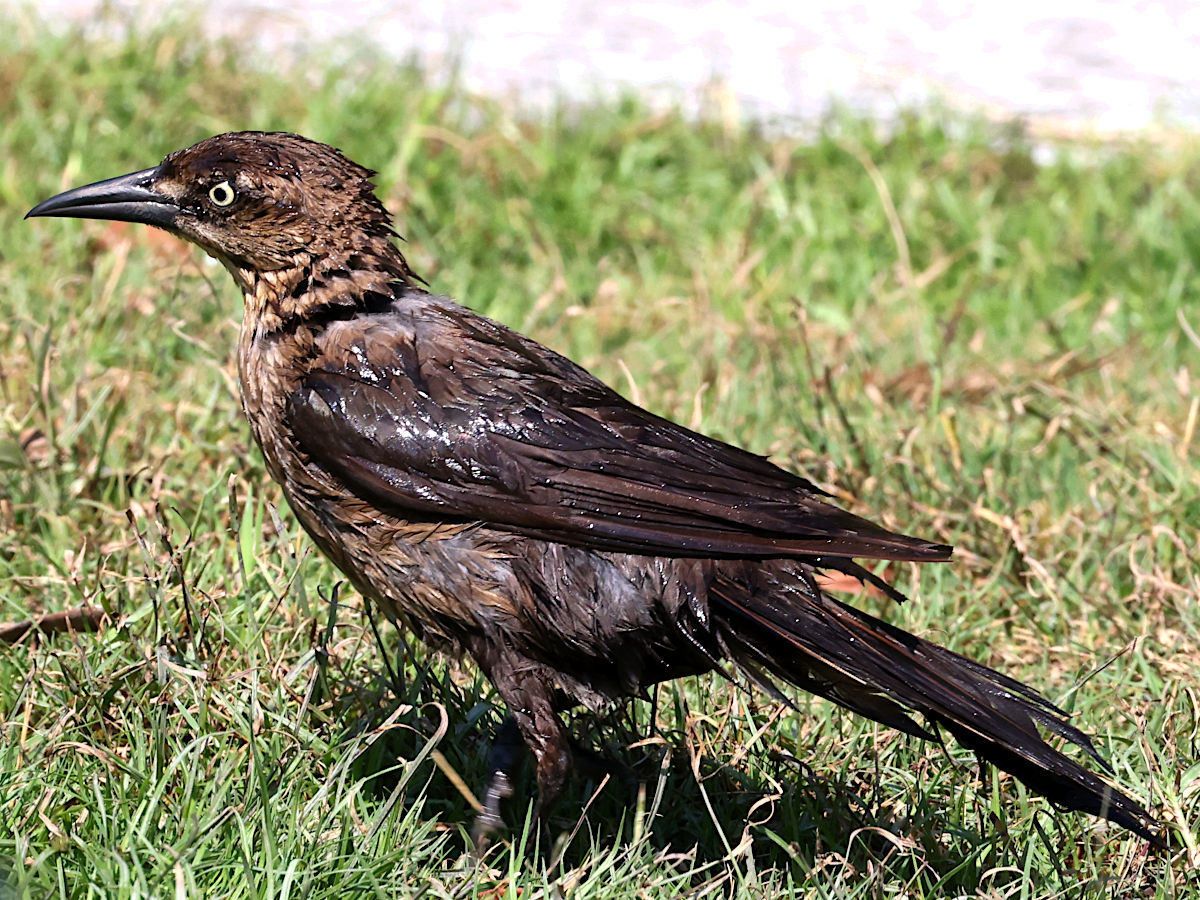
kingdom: Animalia
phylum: Chordata
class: Aves
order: Passeriformes
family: Icteridae
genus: Quiscalus
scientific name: Quiscalus major
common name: Boat-tailed grackle
